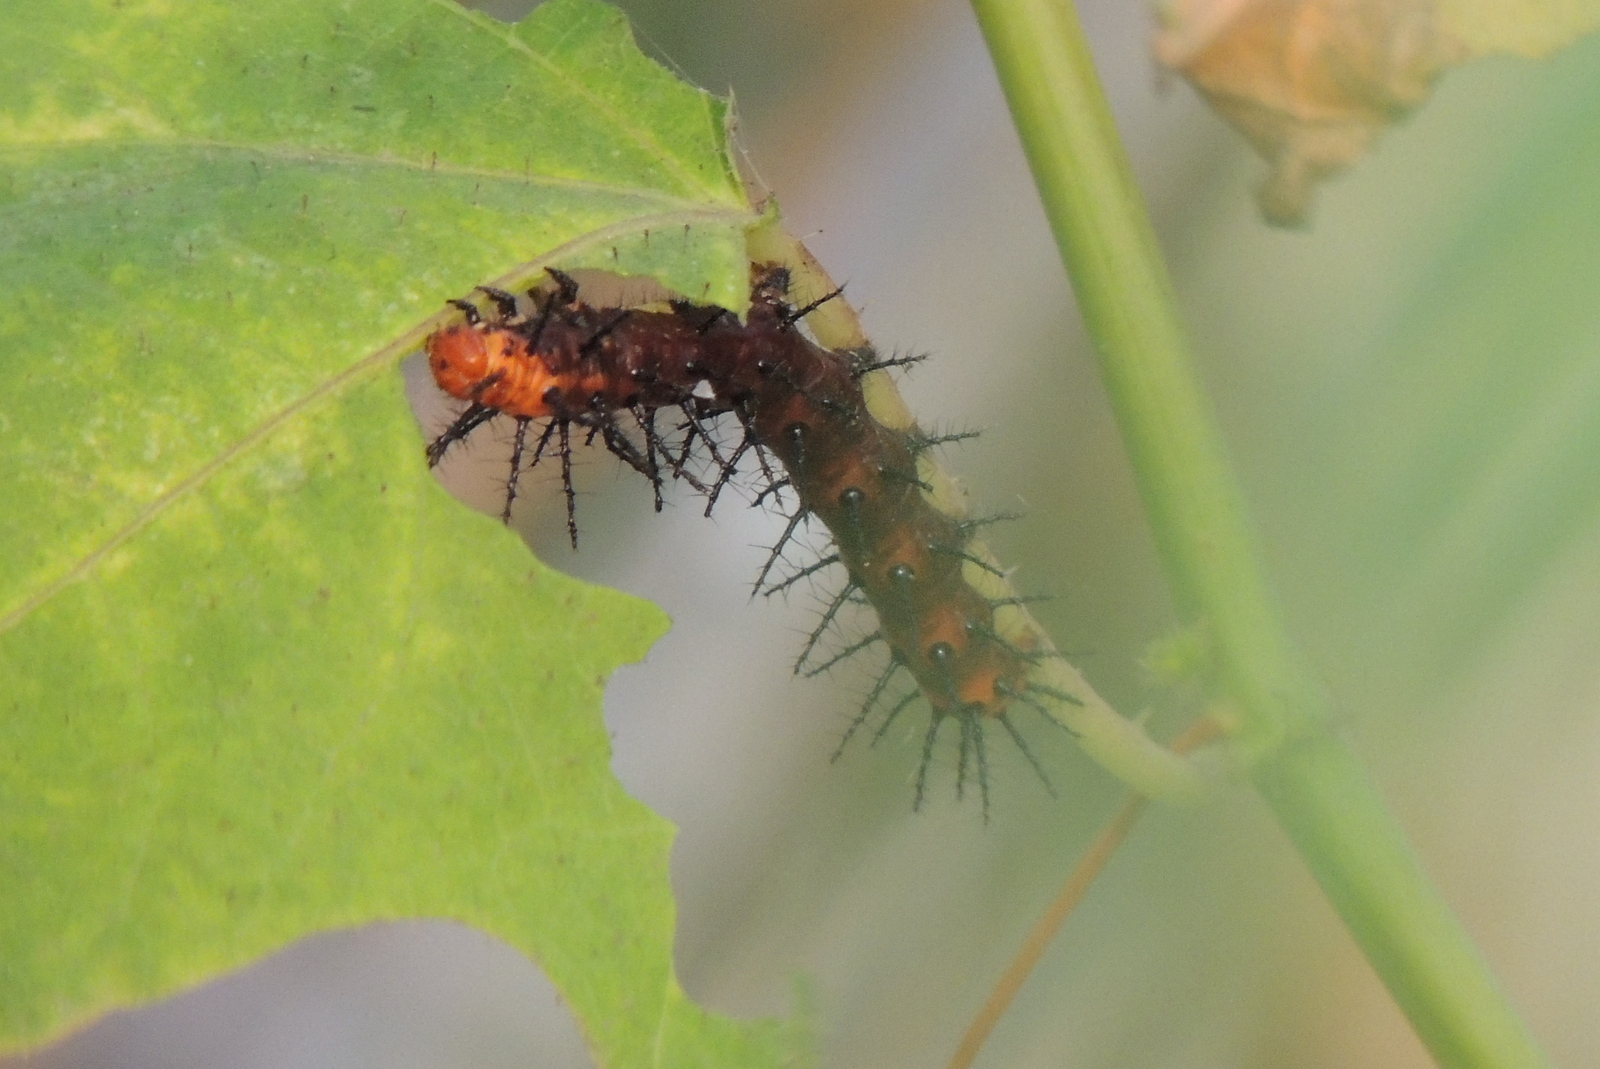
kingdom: Animalia
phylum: Arthropoda
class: Insecta
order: Lepidoptera
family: Nymphalidae
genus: Acraea
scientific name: Acraea terpsicore
